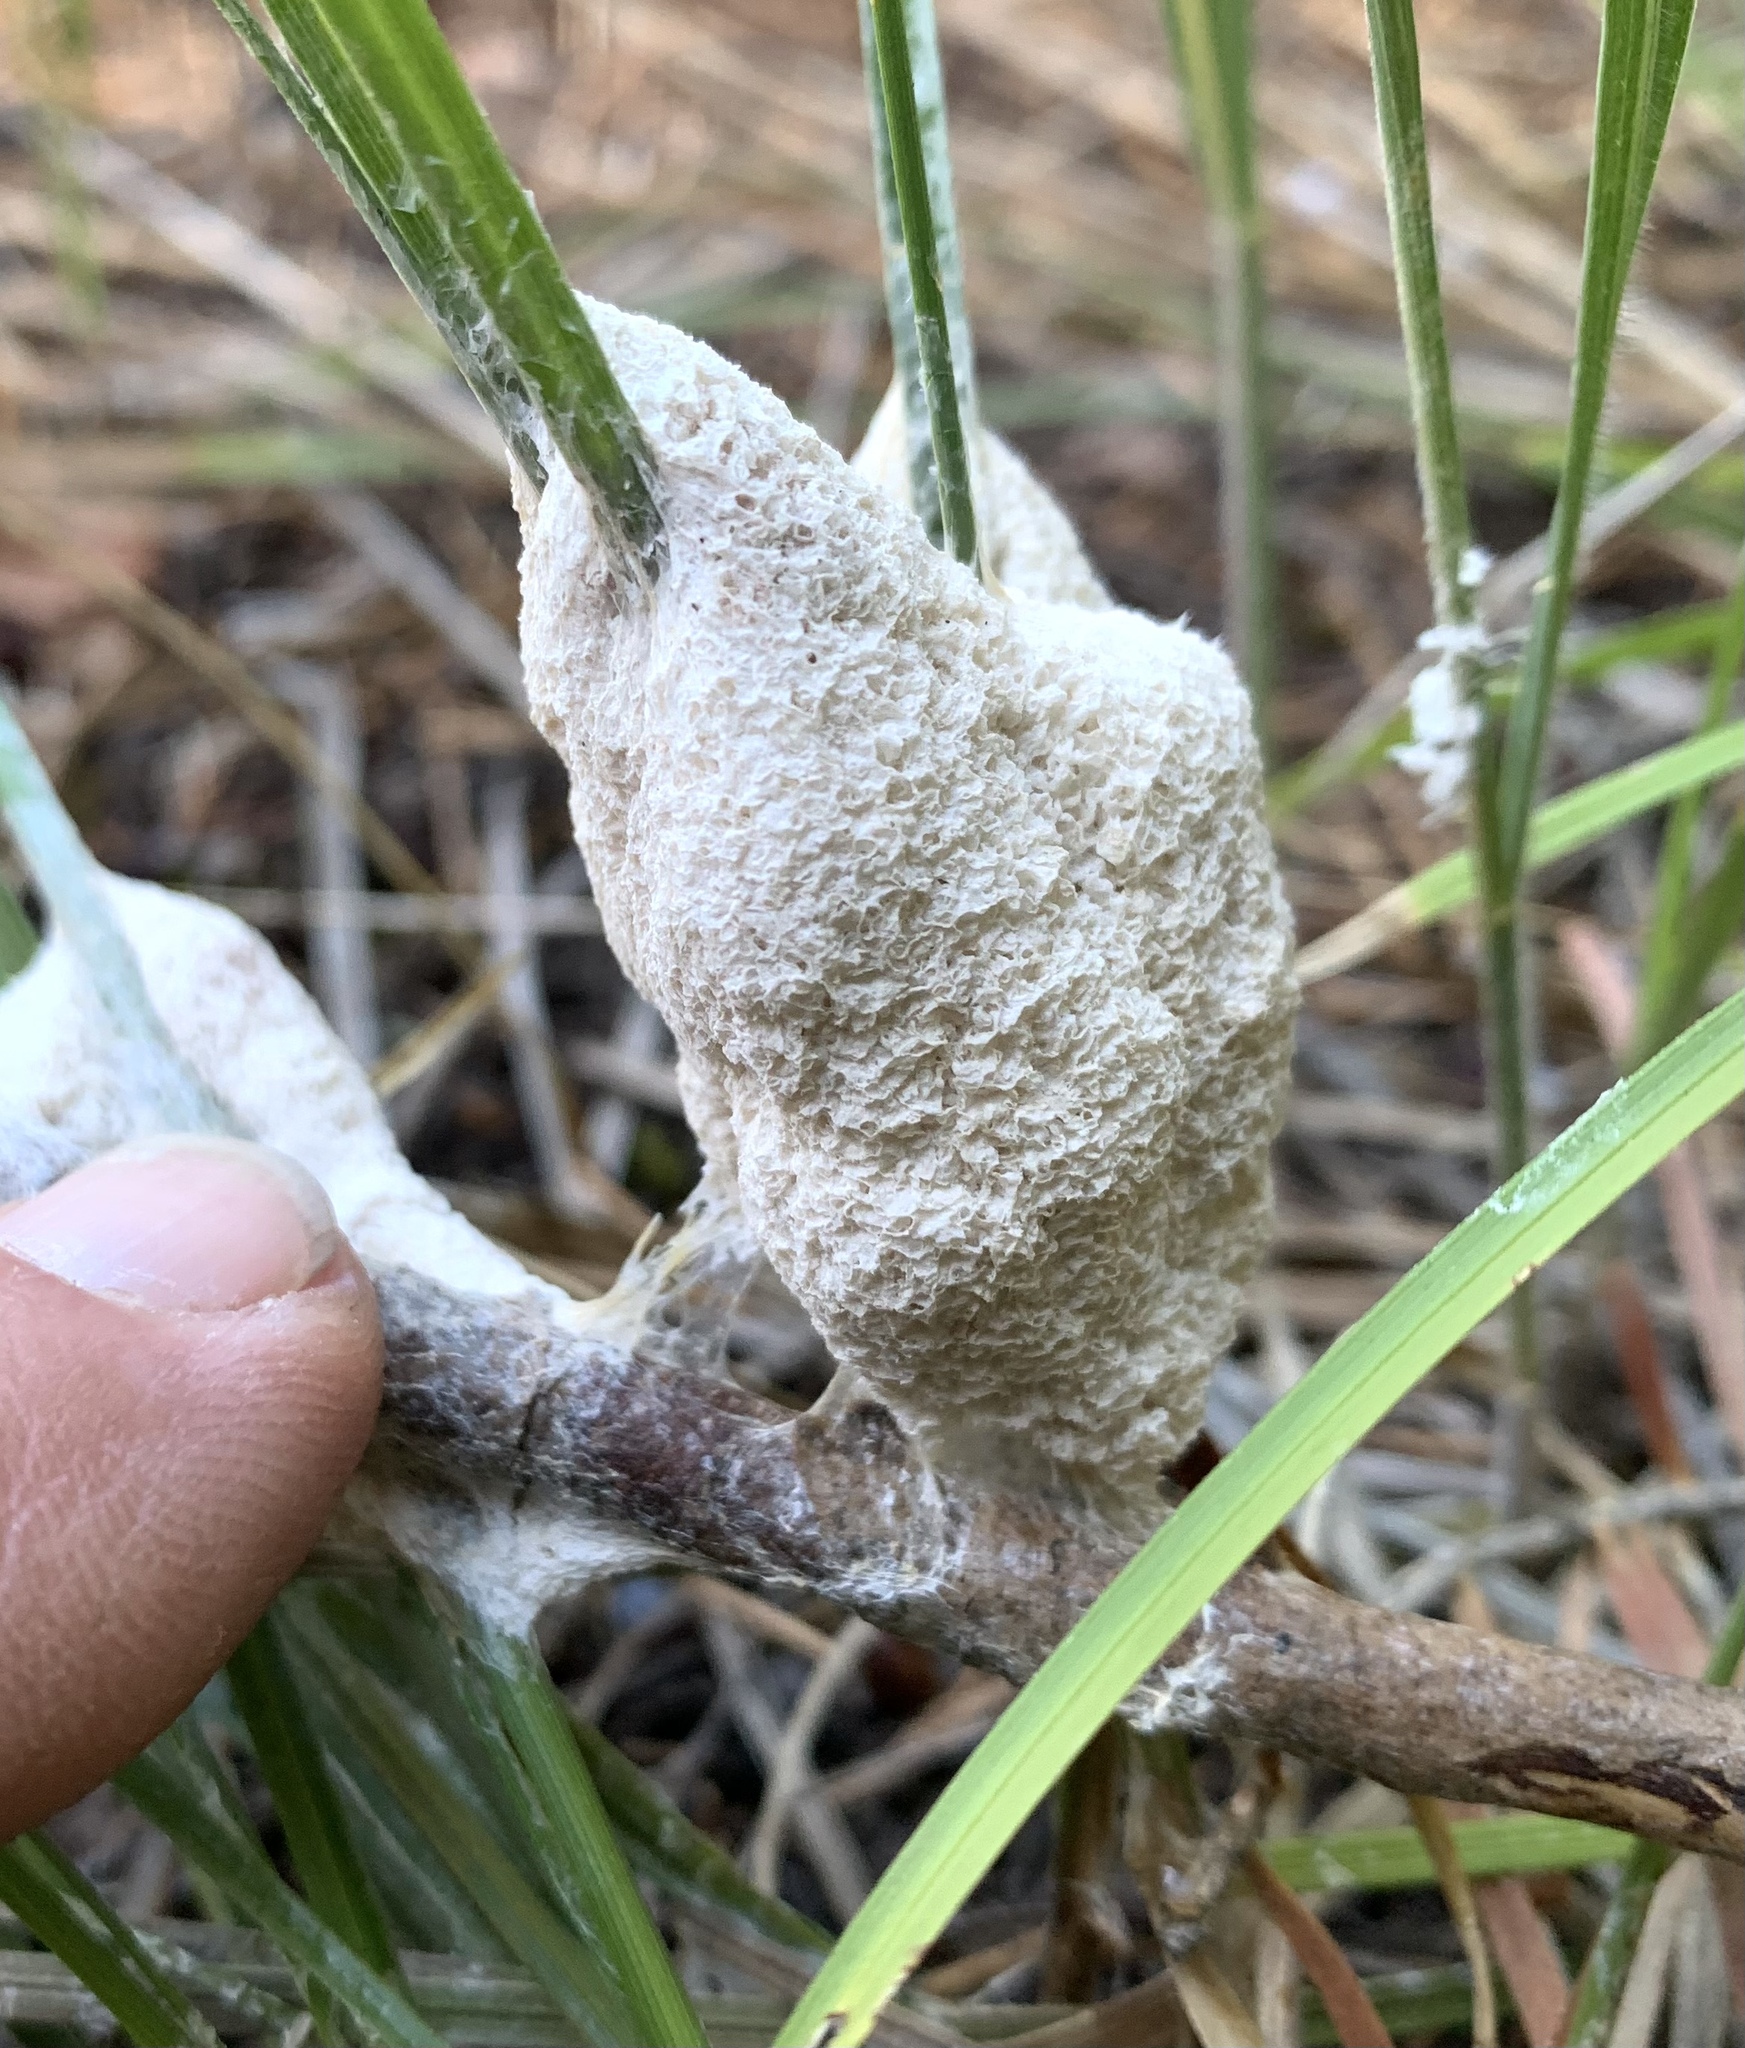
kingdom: Protozoa
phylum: Mycetozoa
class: Myxomycetes
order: Physarales
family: Physaraceae
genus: Didymium
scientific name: Didymium
